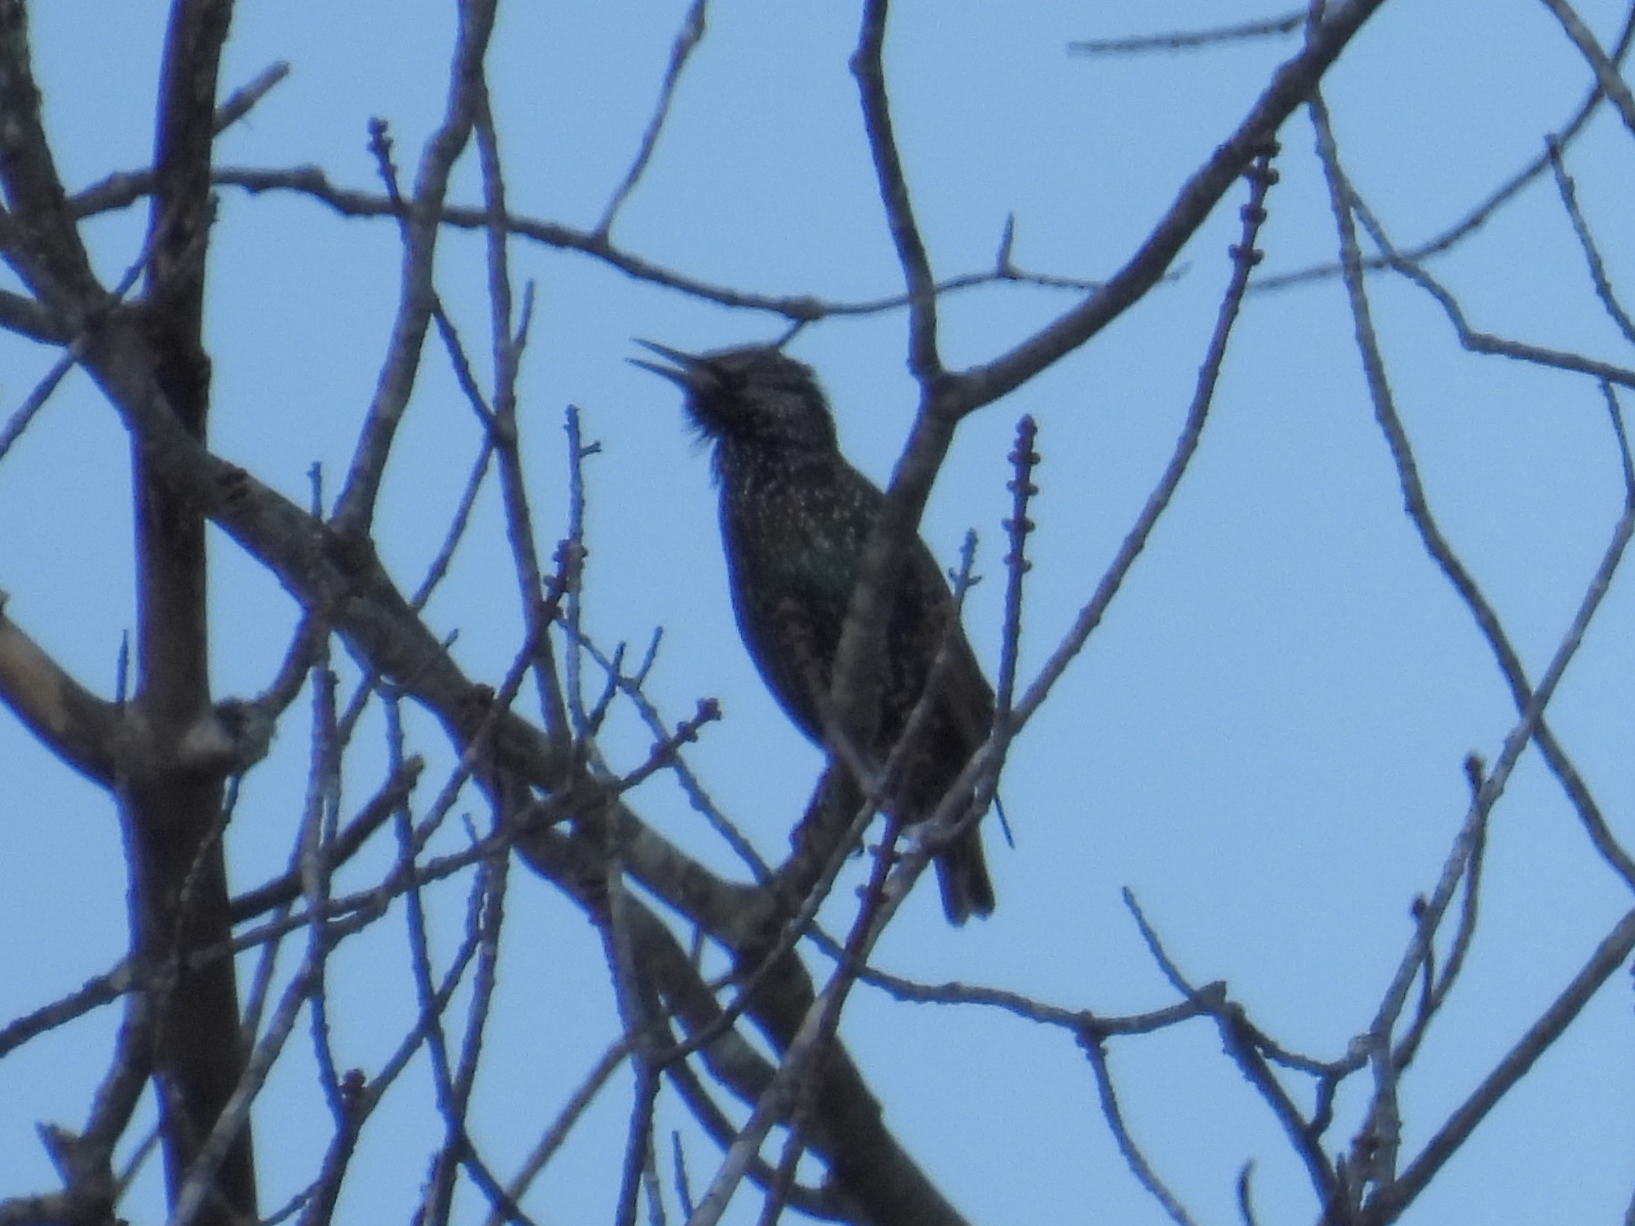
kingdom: Animalia
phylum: Chordata
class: Aves
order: Passeriformes
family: Sturnidae
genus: Sturnus
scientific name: Sturnus vulgaris
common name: Common starling
